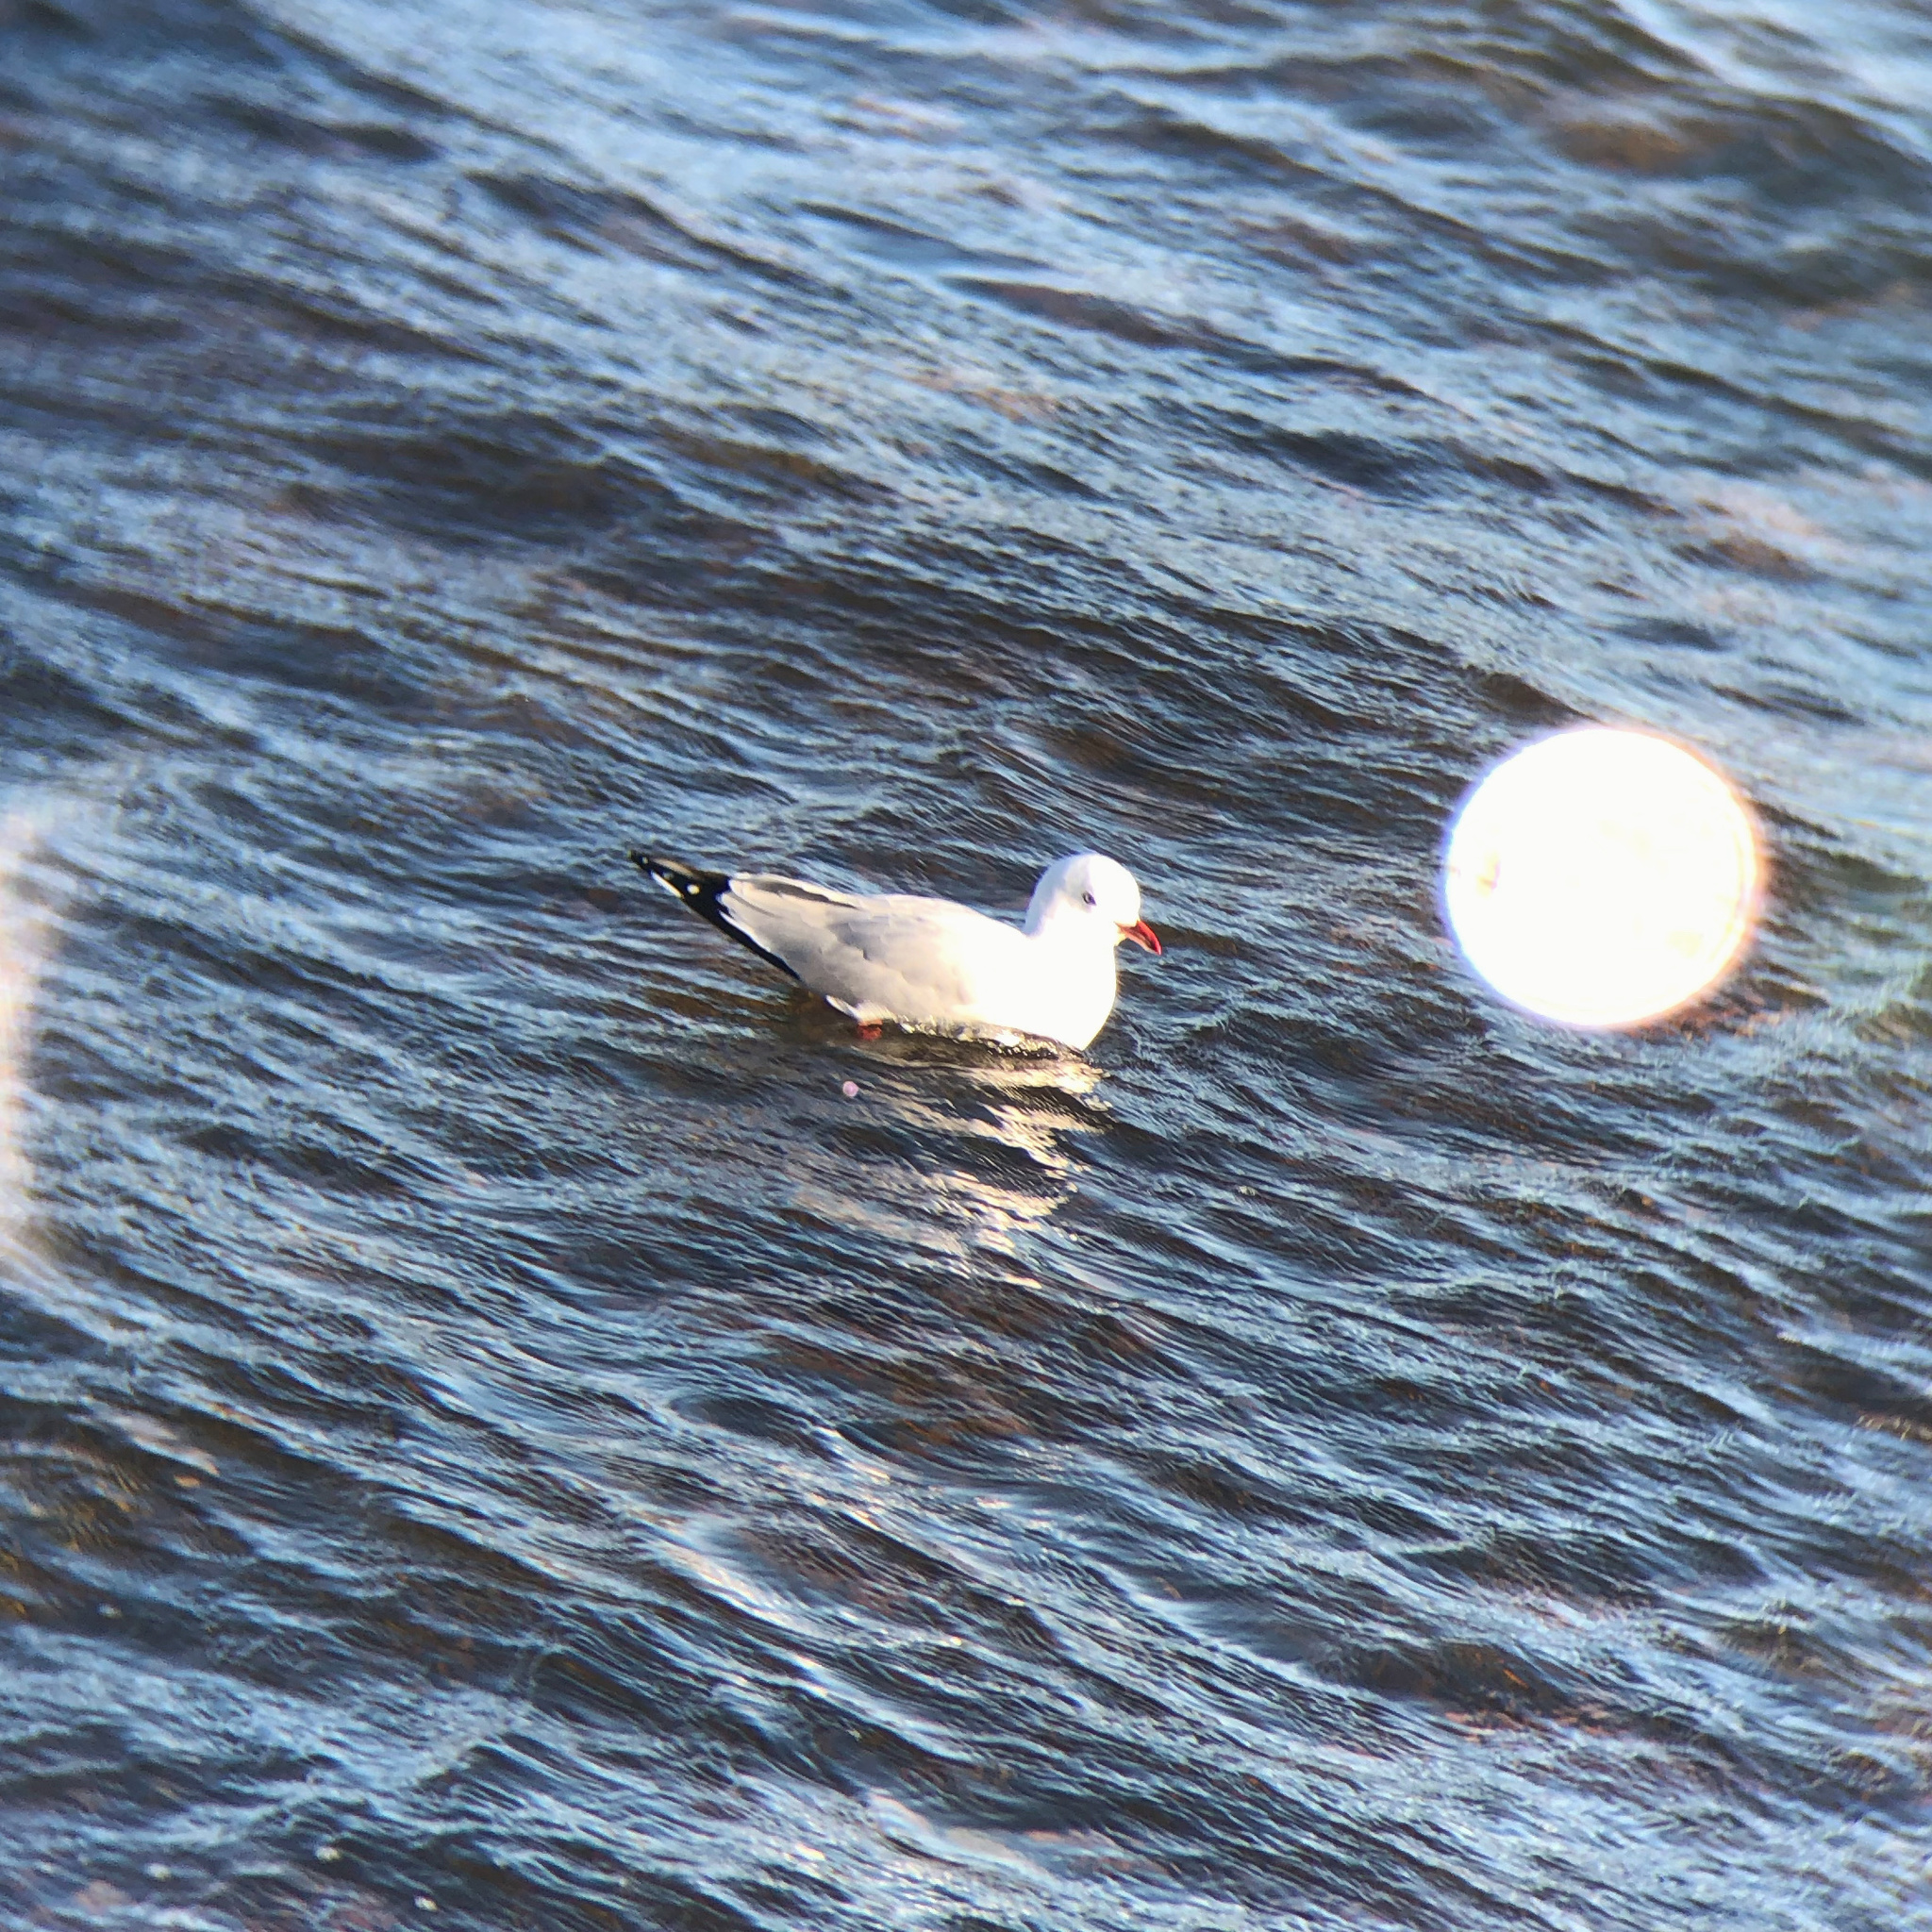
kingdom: Animalia
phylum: Chordata
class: Aves
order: Charadriiformes
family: Laridae
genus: Chroicocephalus
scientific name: Chroicocephalus novaehollandiae
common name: Silver gull
